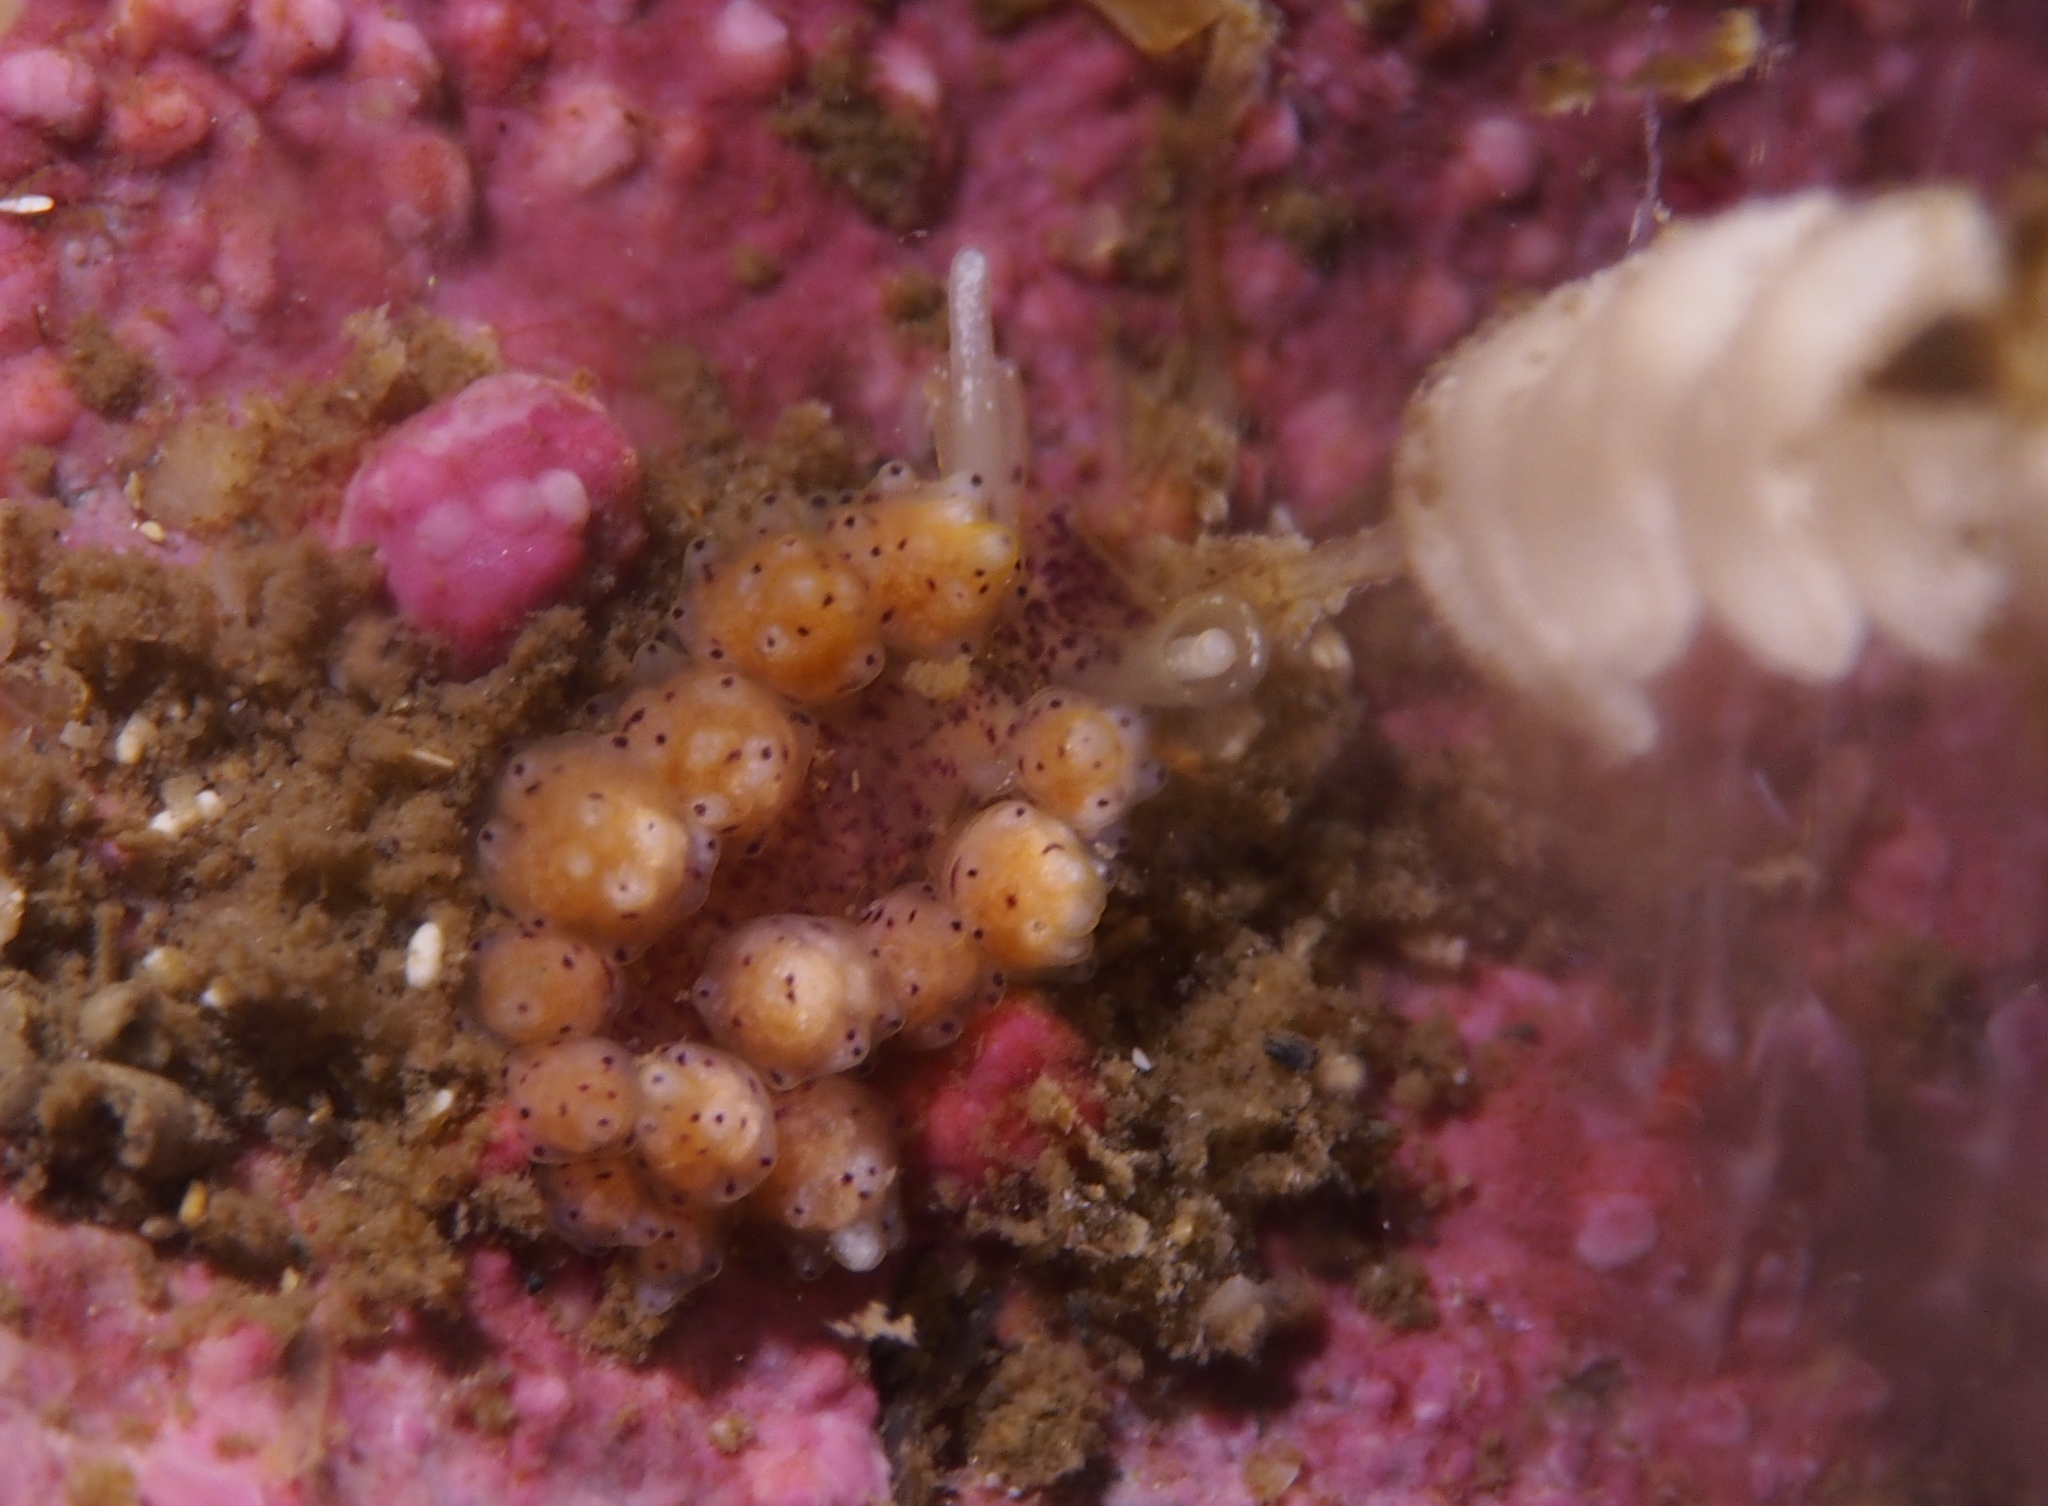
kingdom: Animalia
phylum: Mollusca
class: Gastropoda
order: Nudibranchia
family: Dotidae
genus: Doto
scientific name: Doto dunnei
